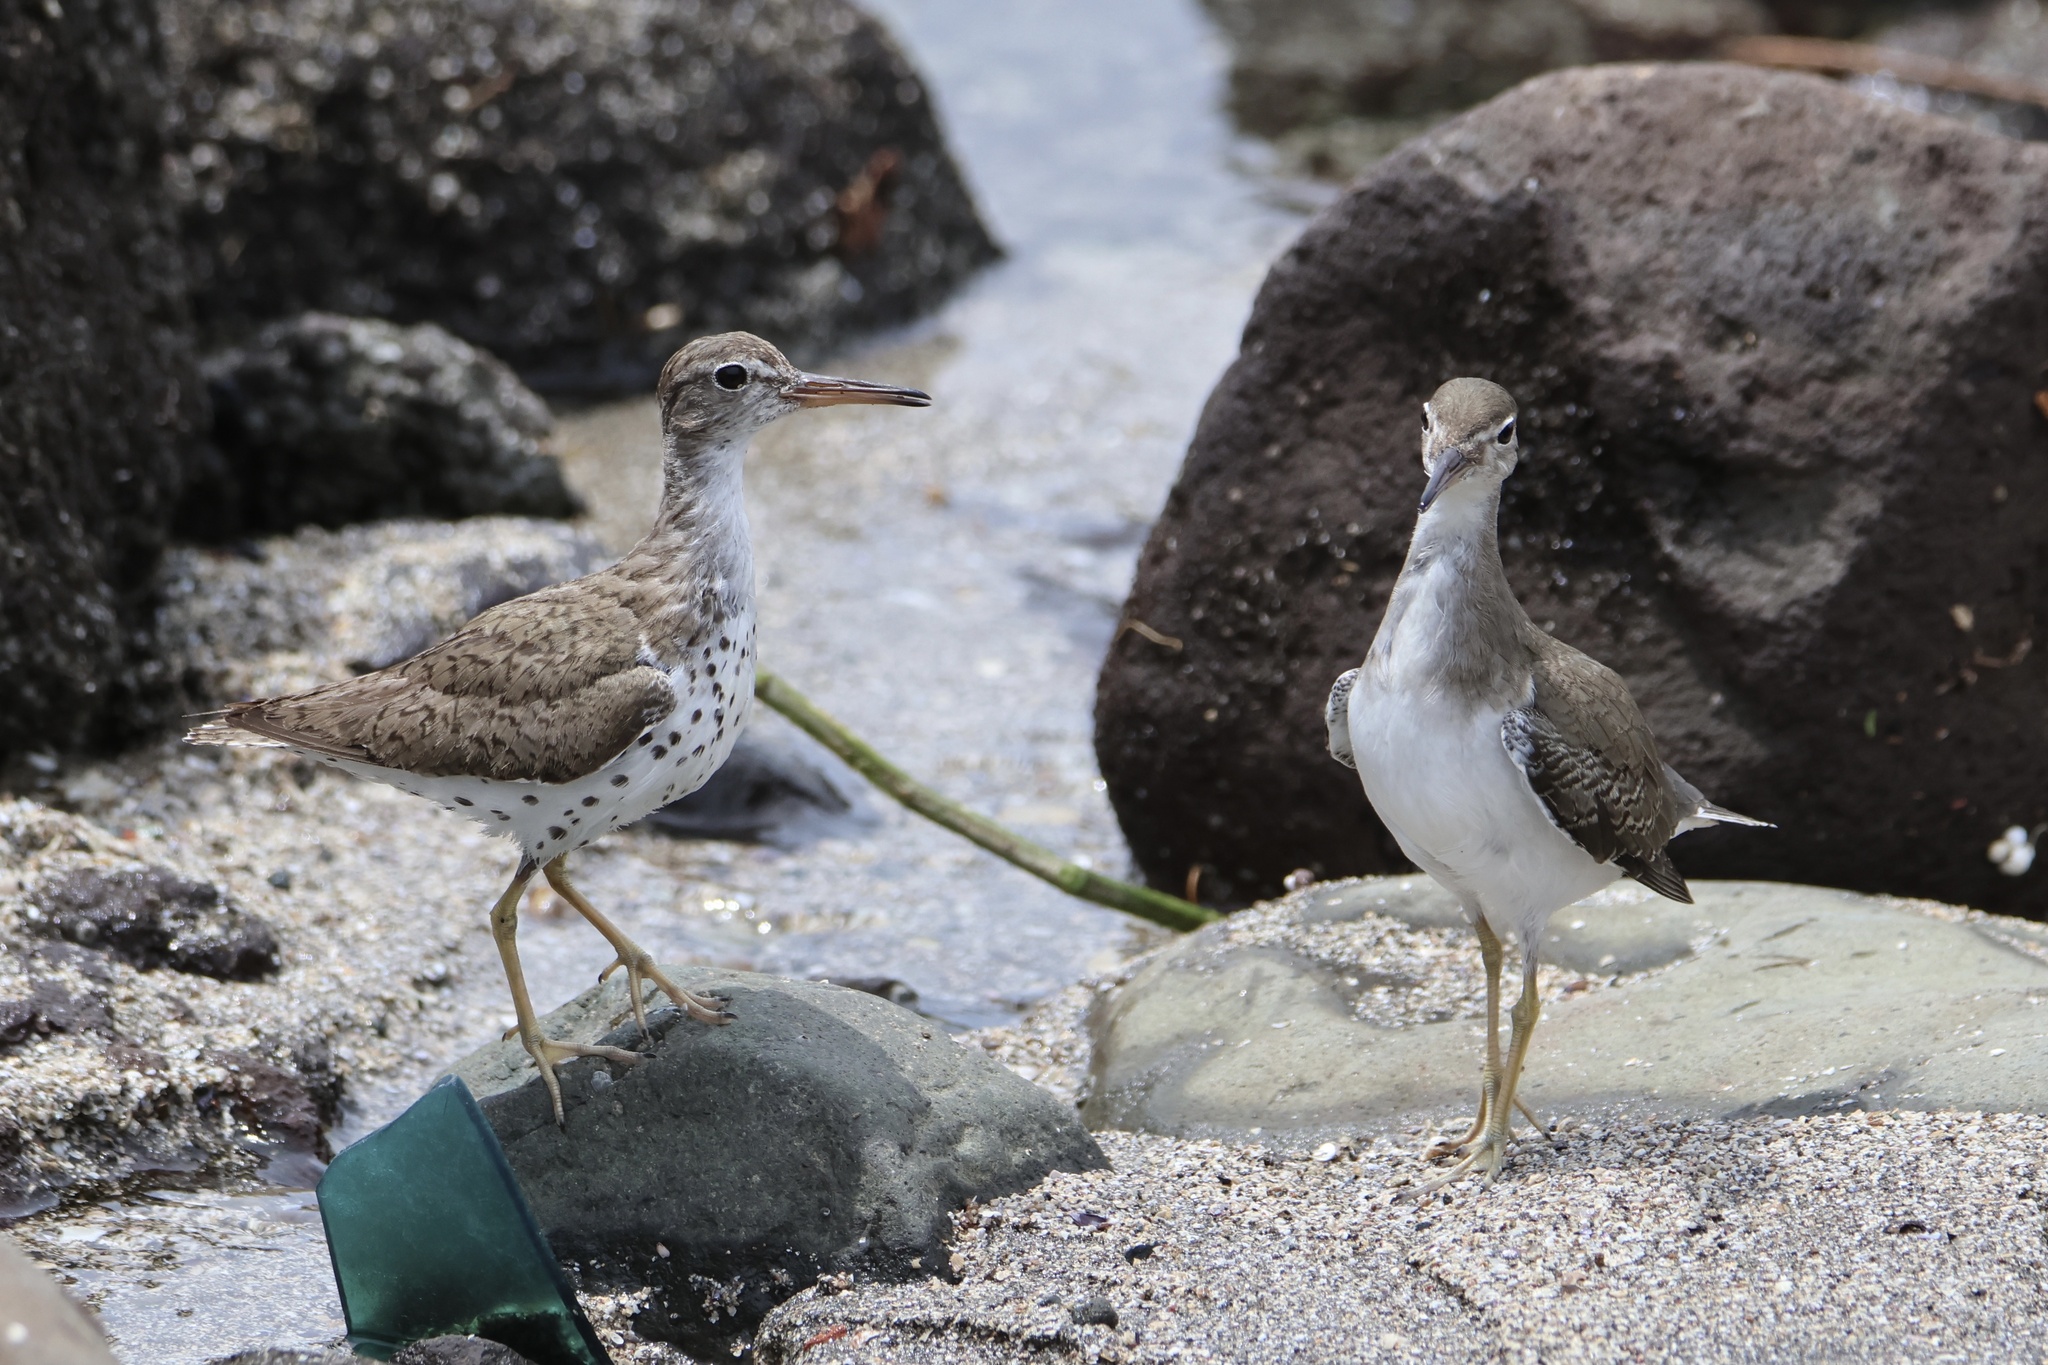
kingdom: Animalia
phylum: Chordata
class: Aves
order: Charadriiformes
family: Scolopacidae
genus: Actitis
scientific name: Actitis macularius
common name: Spotted sandpiper
